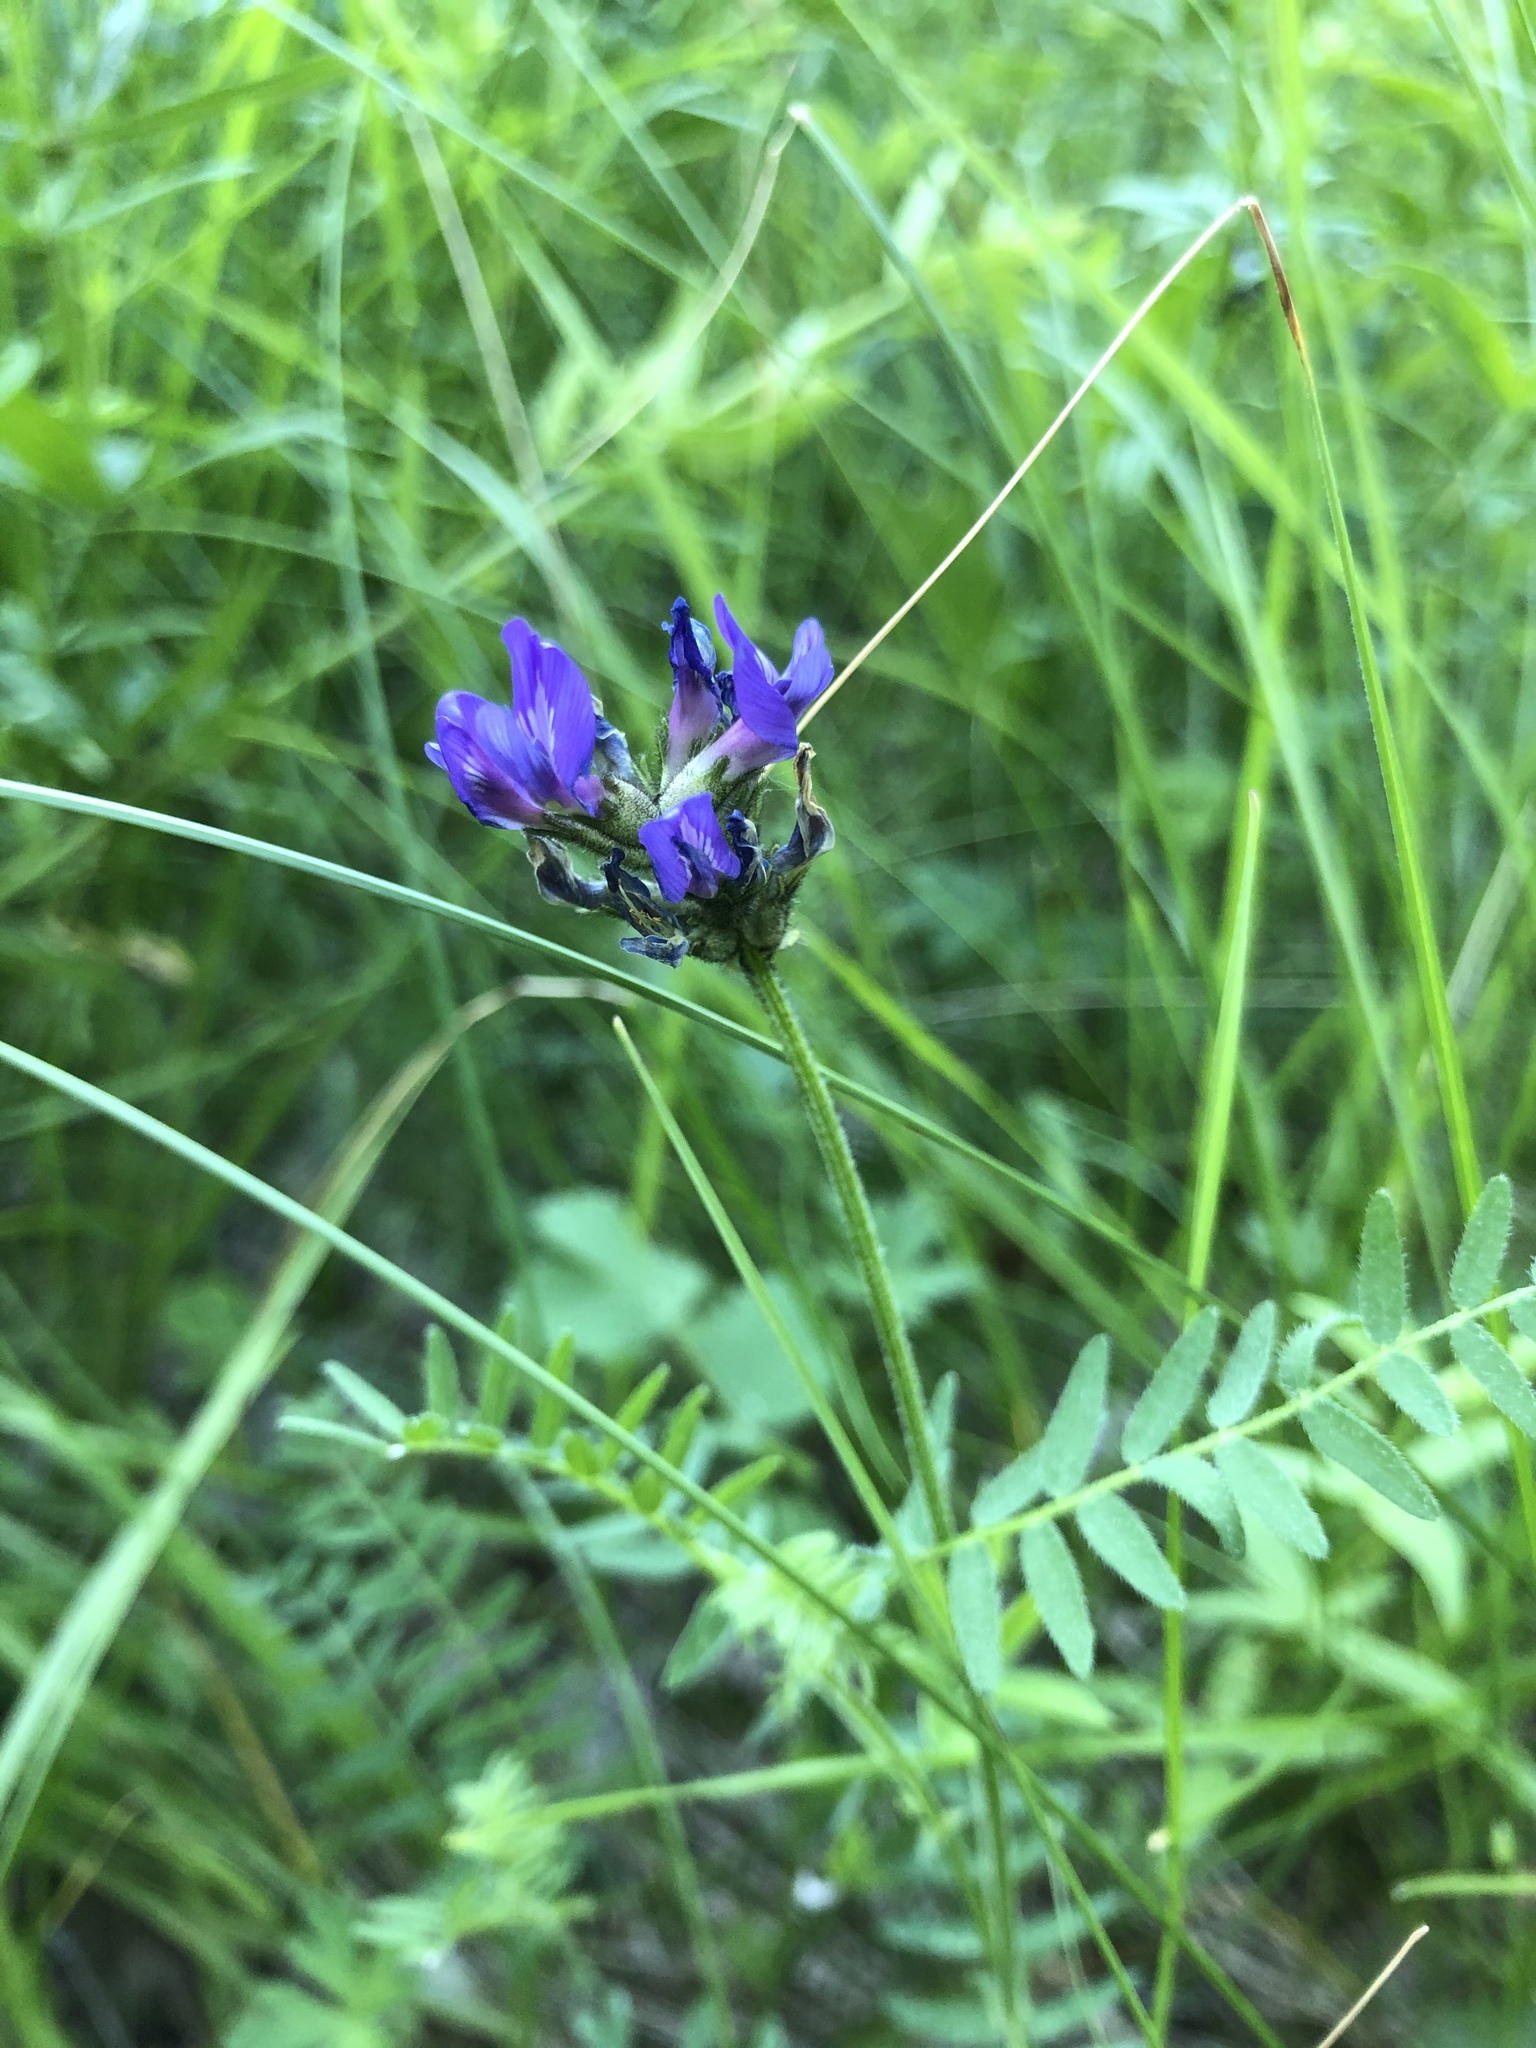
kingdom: Plantae
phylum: Tracheophyta
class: Magnoliopsida
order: Fabales
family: Fabaceae
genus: Astragalus
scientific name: Astragalus danicus
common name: Purple milk-vetch
